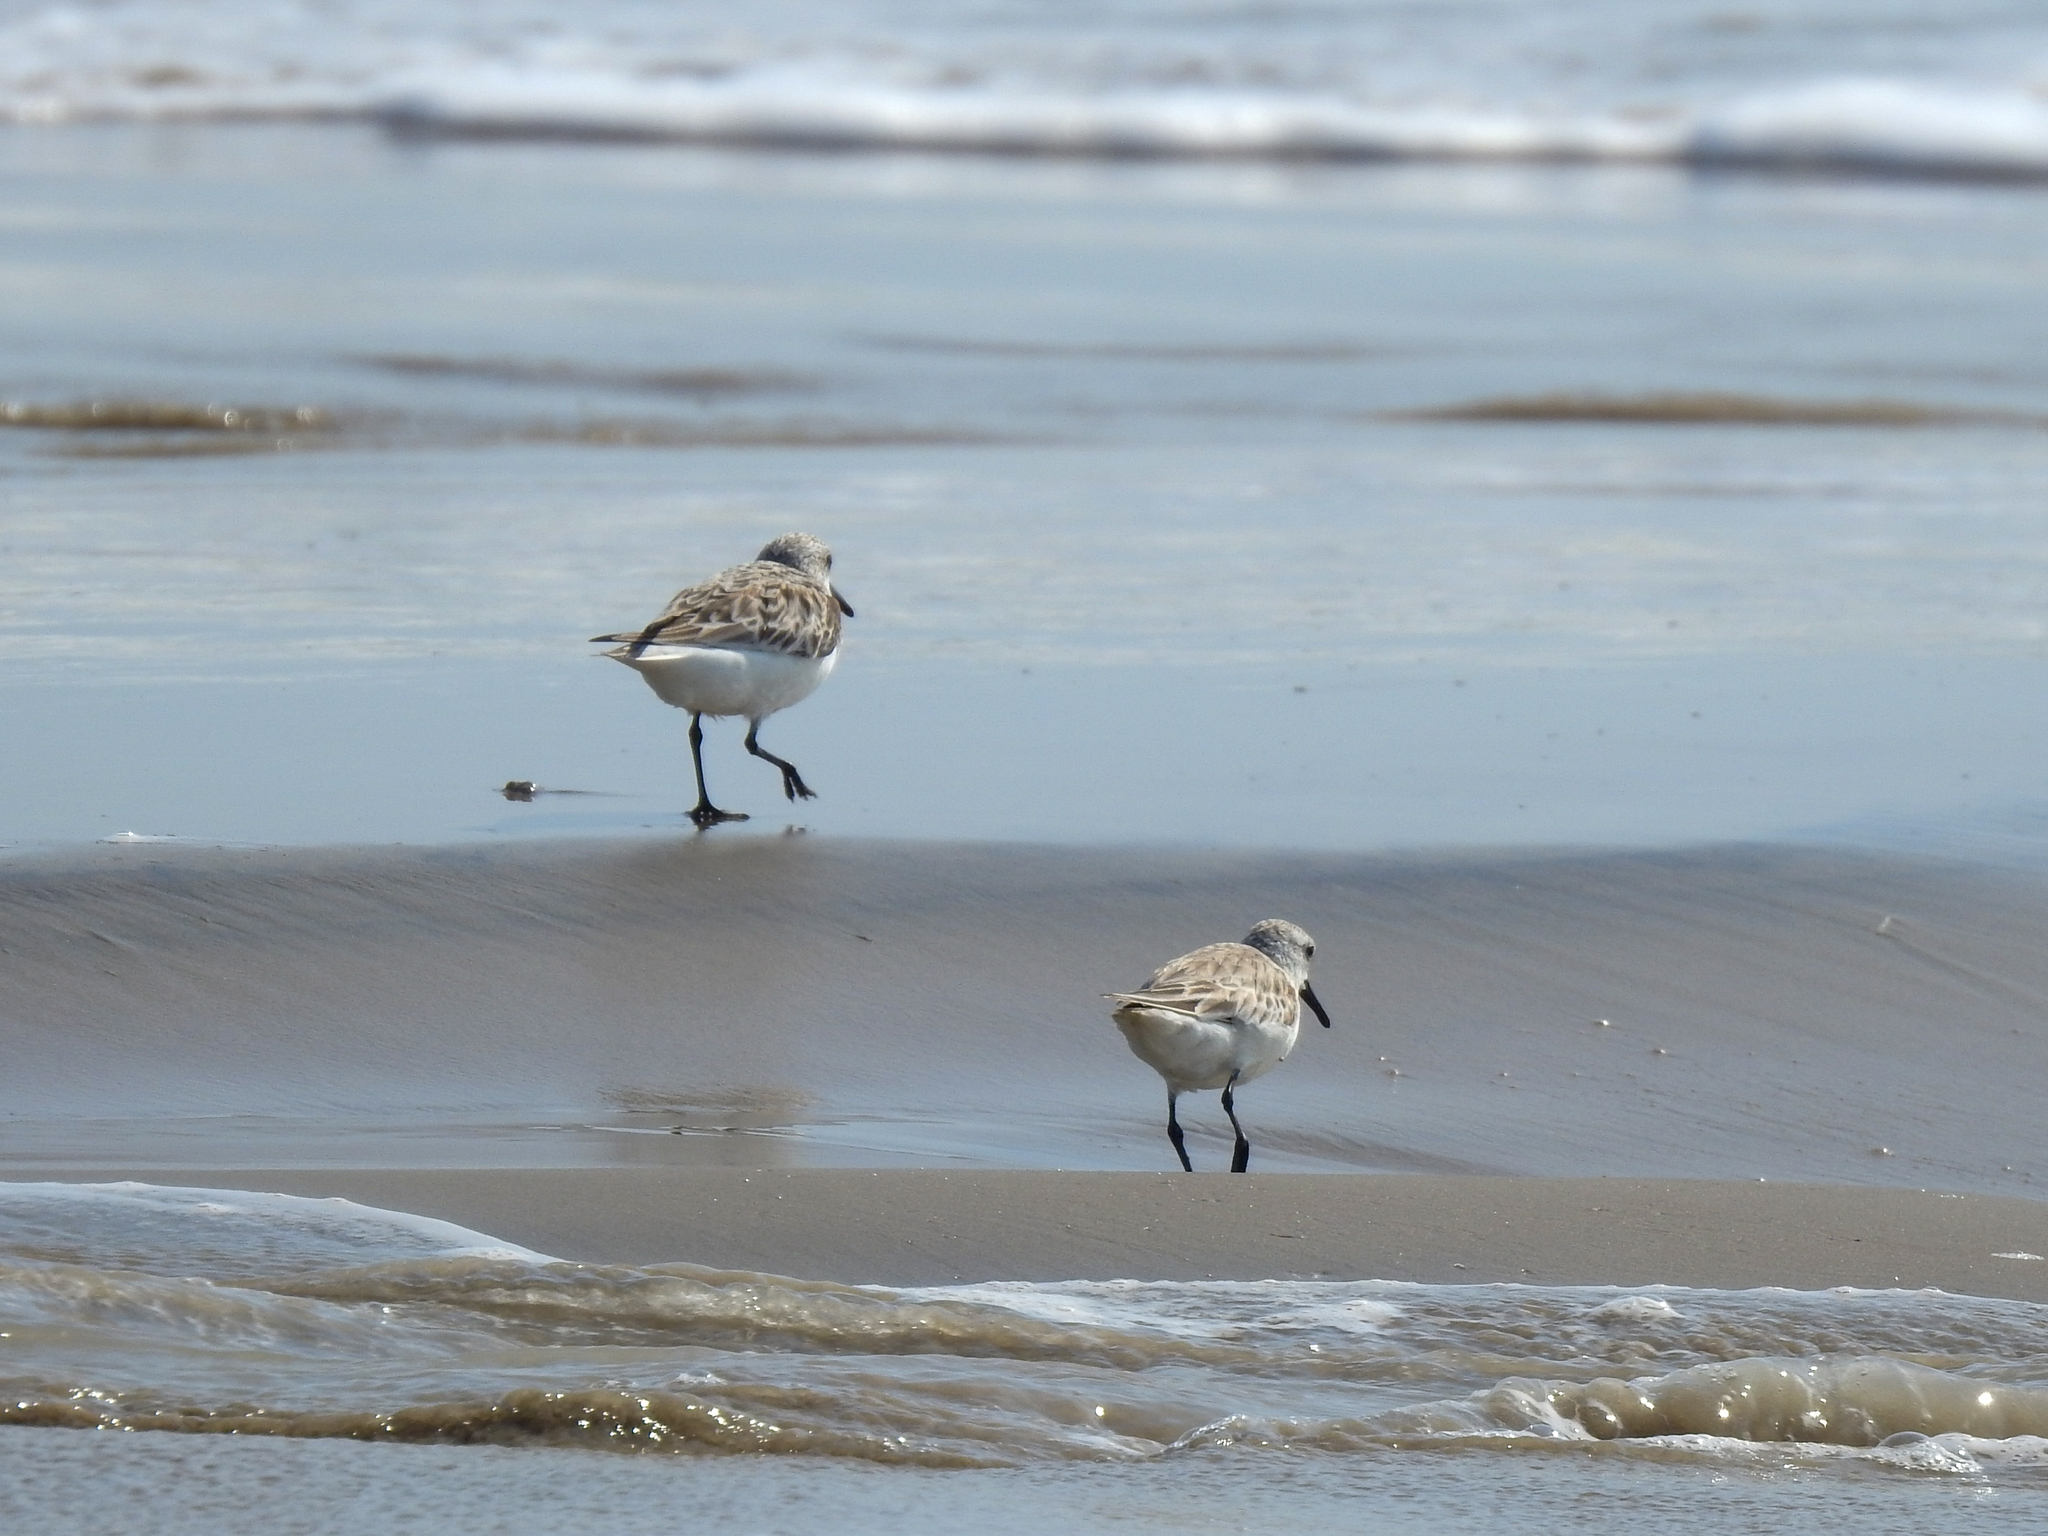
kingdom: Animalia
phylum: Chordata
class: Aves
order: Charadriiformes
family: Scolopacidae
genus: Calidris
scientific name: Calidris alba
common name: Sanderling
